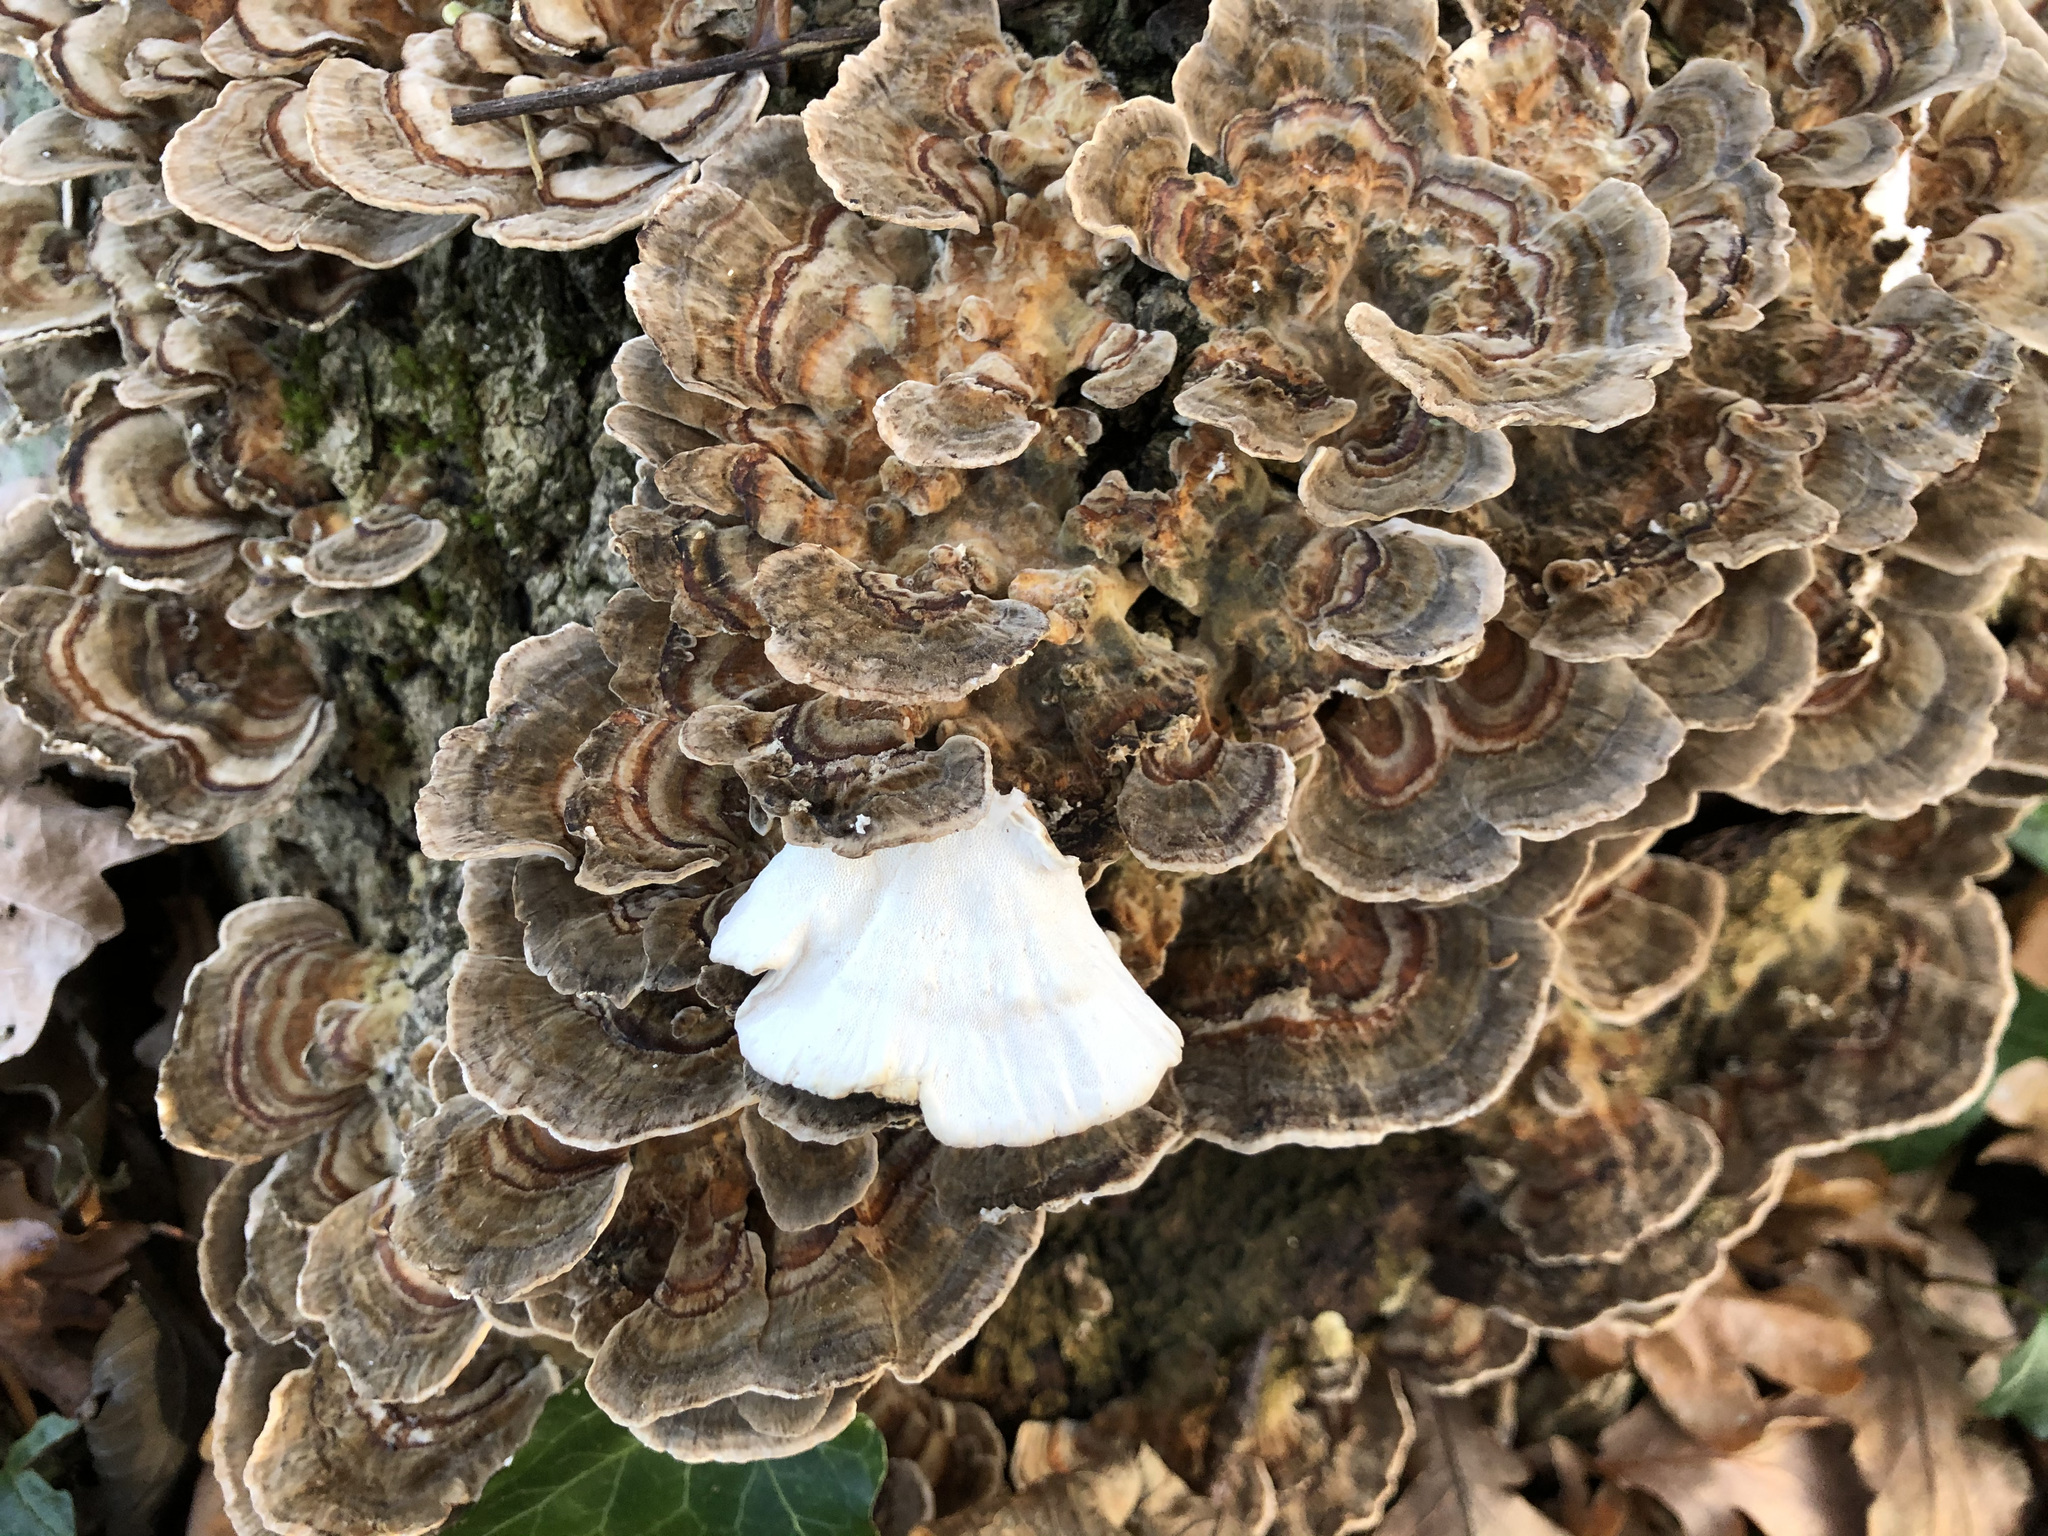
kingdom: Fungi
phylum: Basidiomycota
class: Agaricomycetes
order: Polyporales
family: Polyporaceae
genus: Trametes
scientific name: Trametes versicolor
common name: Turkeytail
